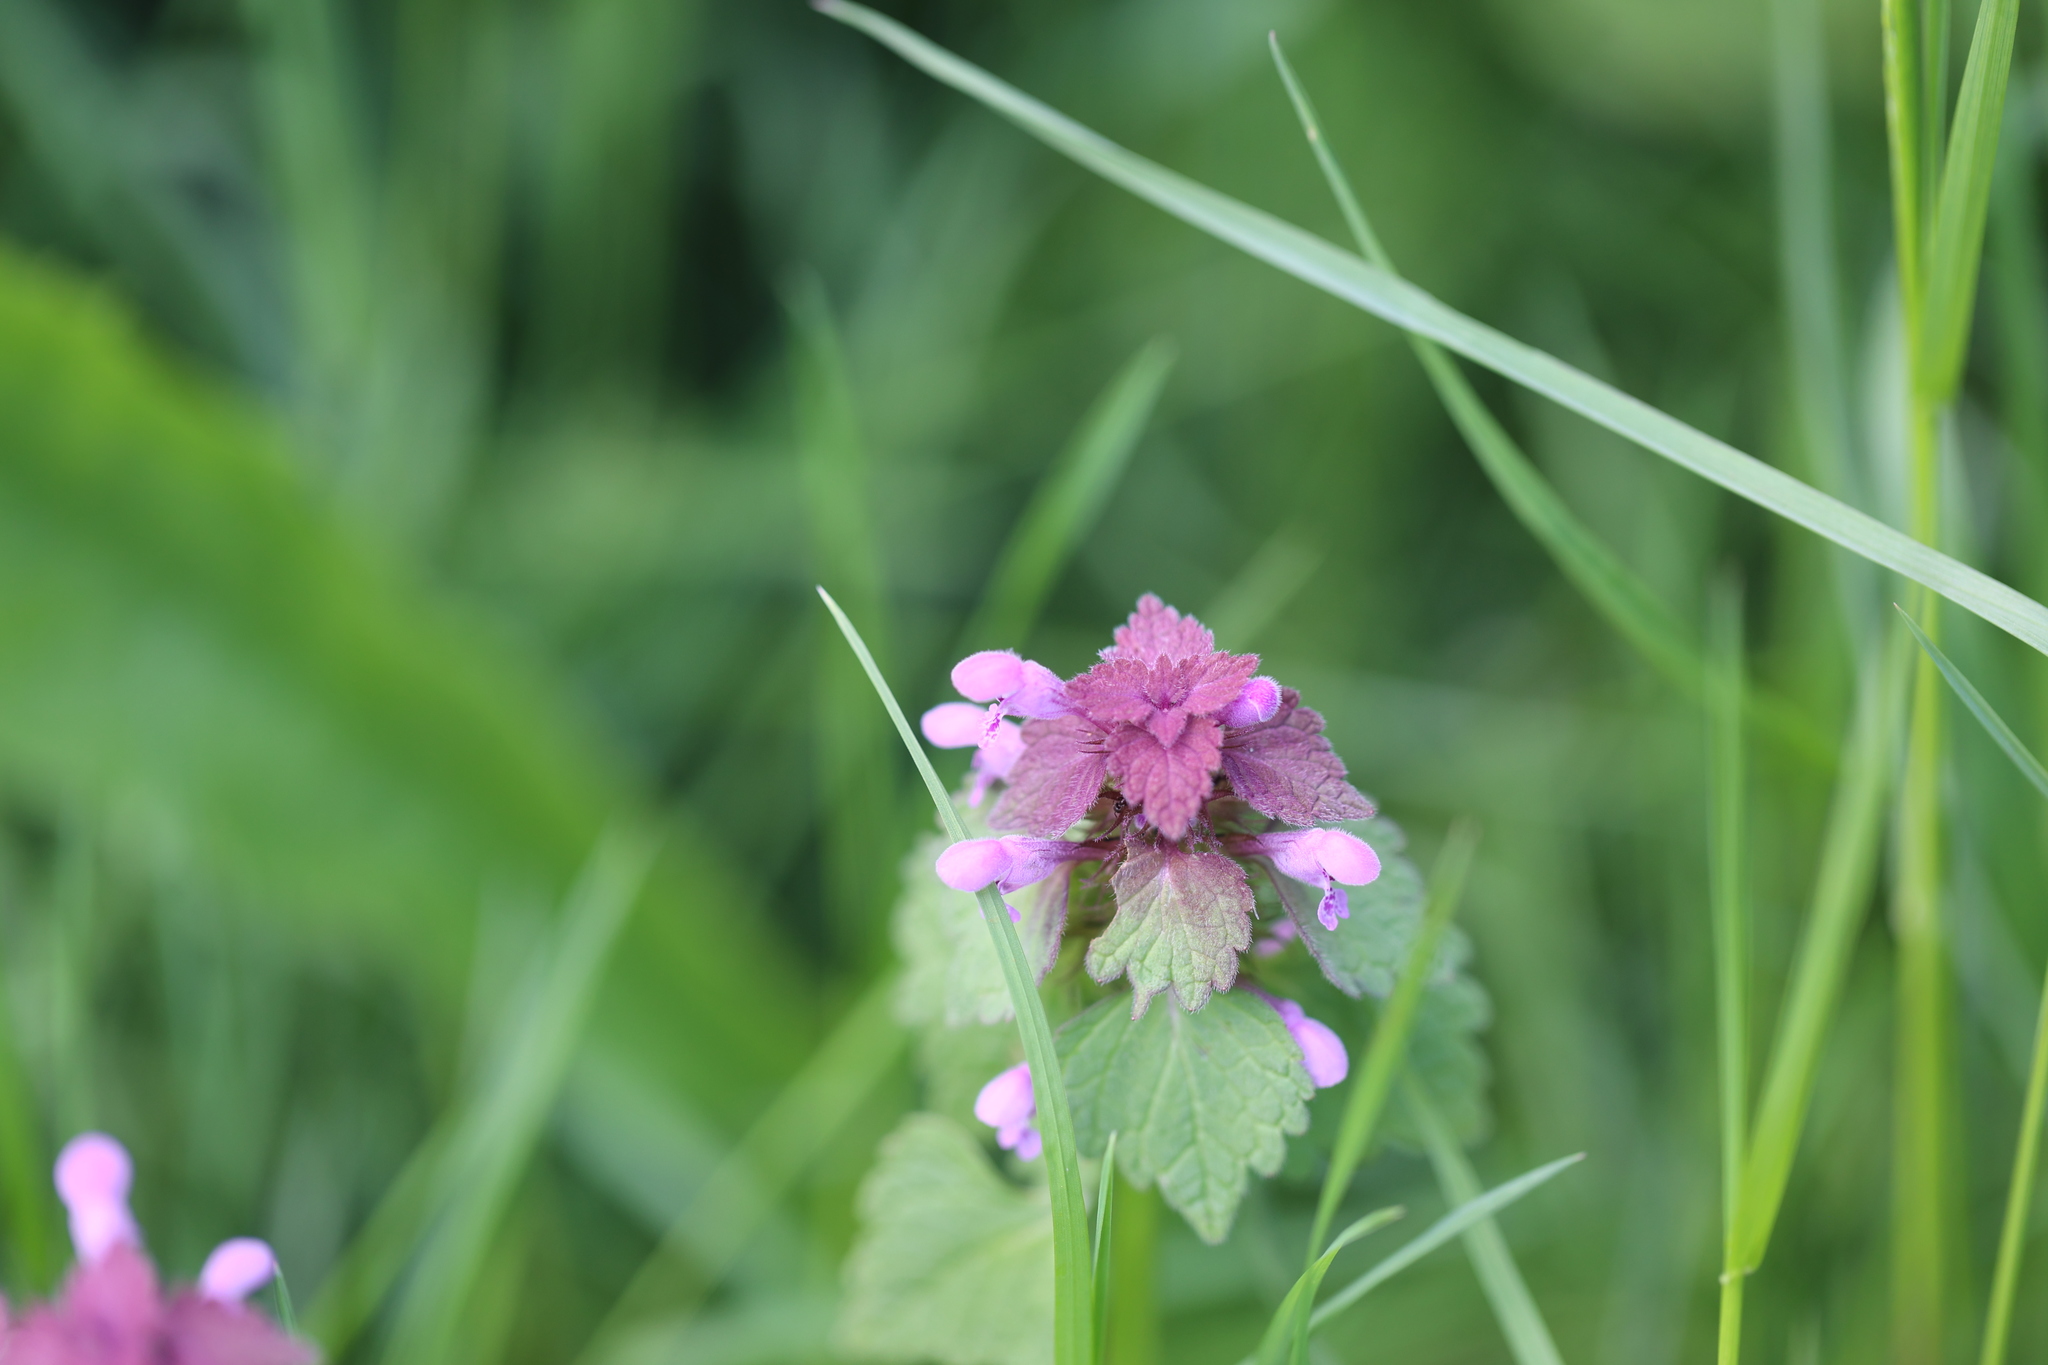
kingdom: Plantae
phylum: Tracheophyta
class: Magnoliopsida
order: Lamiales
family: Lamiaceae
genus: Lamium
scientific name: Lamium purpureum
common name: Red dead-nettle
